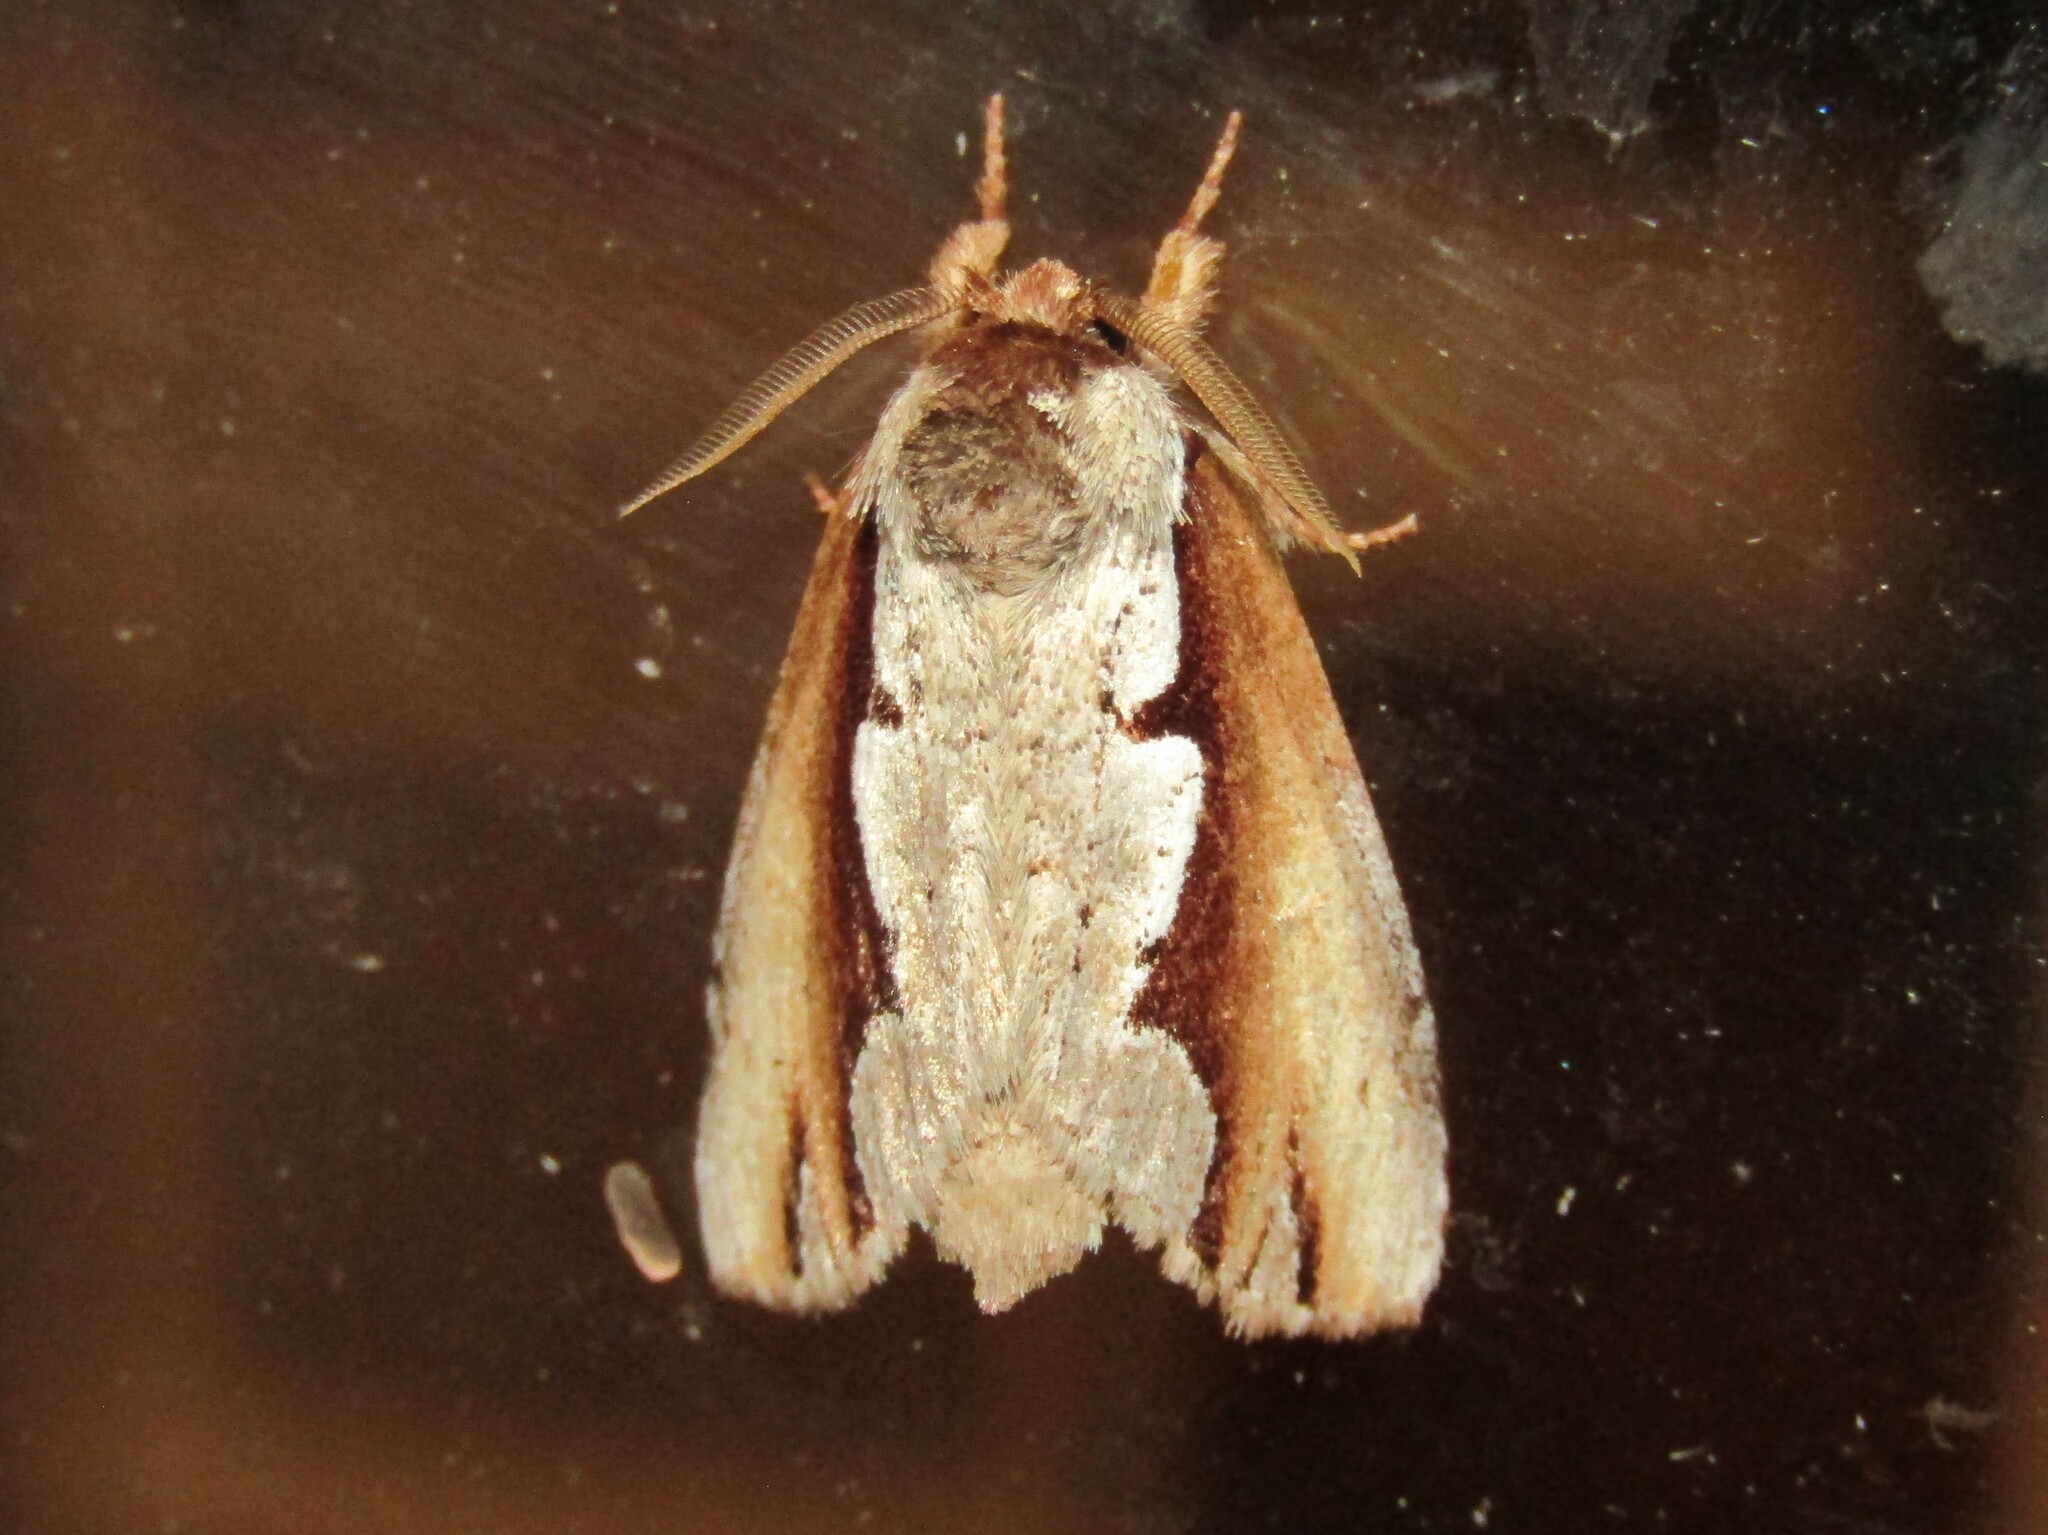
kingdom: Animalia
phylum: Arthropoda
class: Insecta
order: Lepidoptera
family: Notodontidae
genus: Nerice
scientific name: Nerice bidentata
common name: Double-toothed prominent
